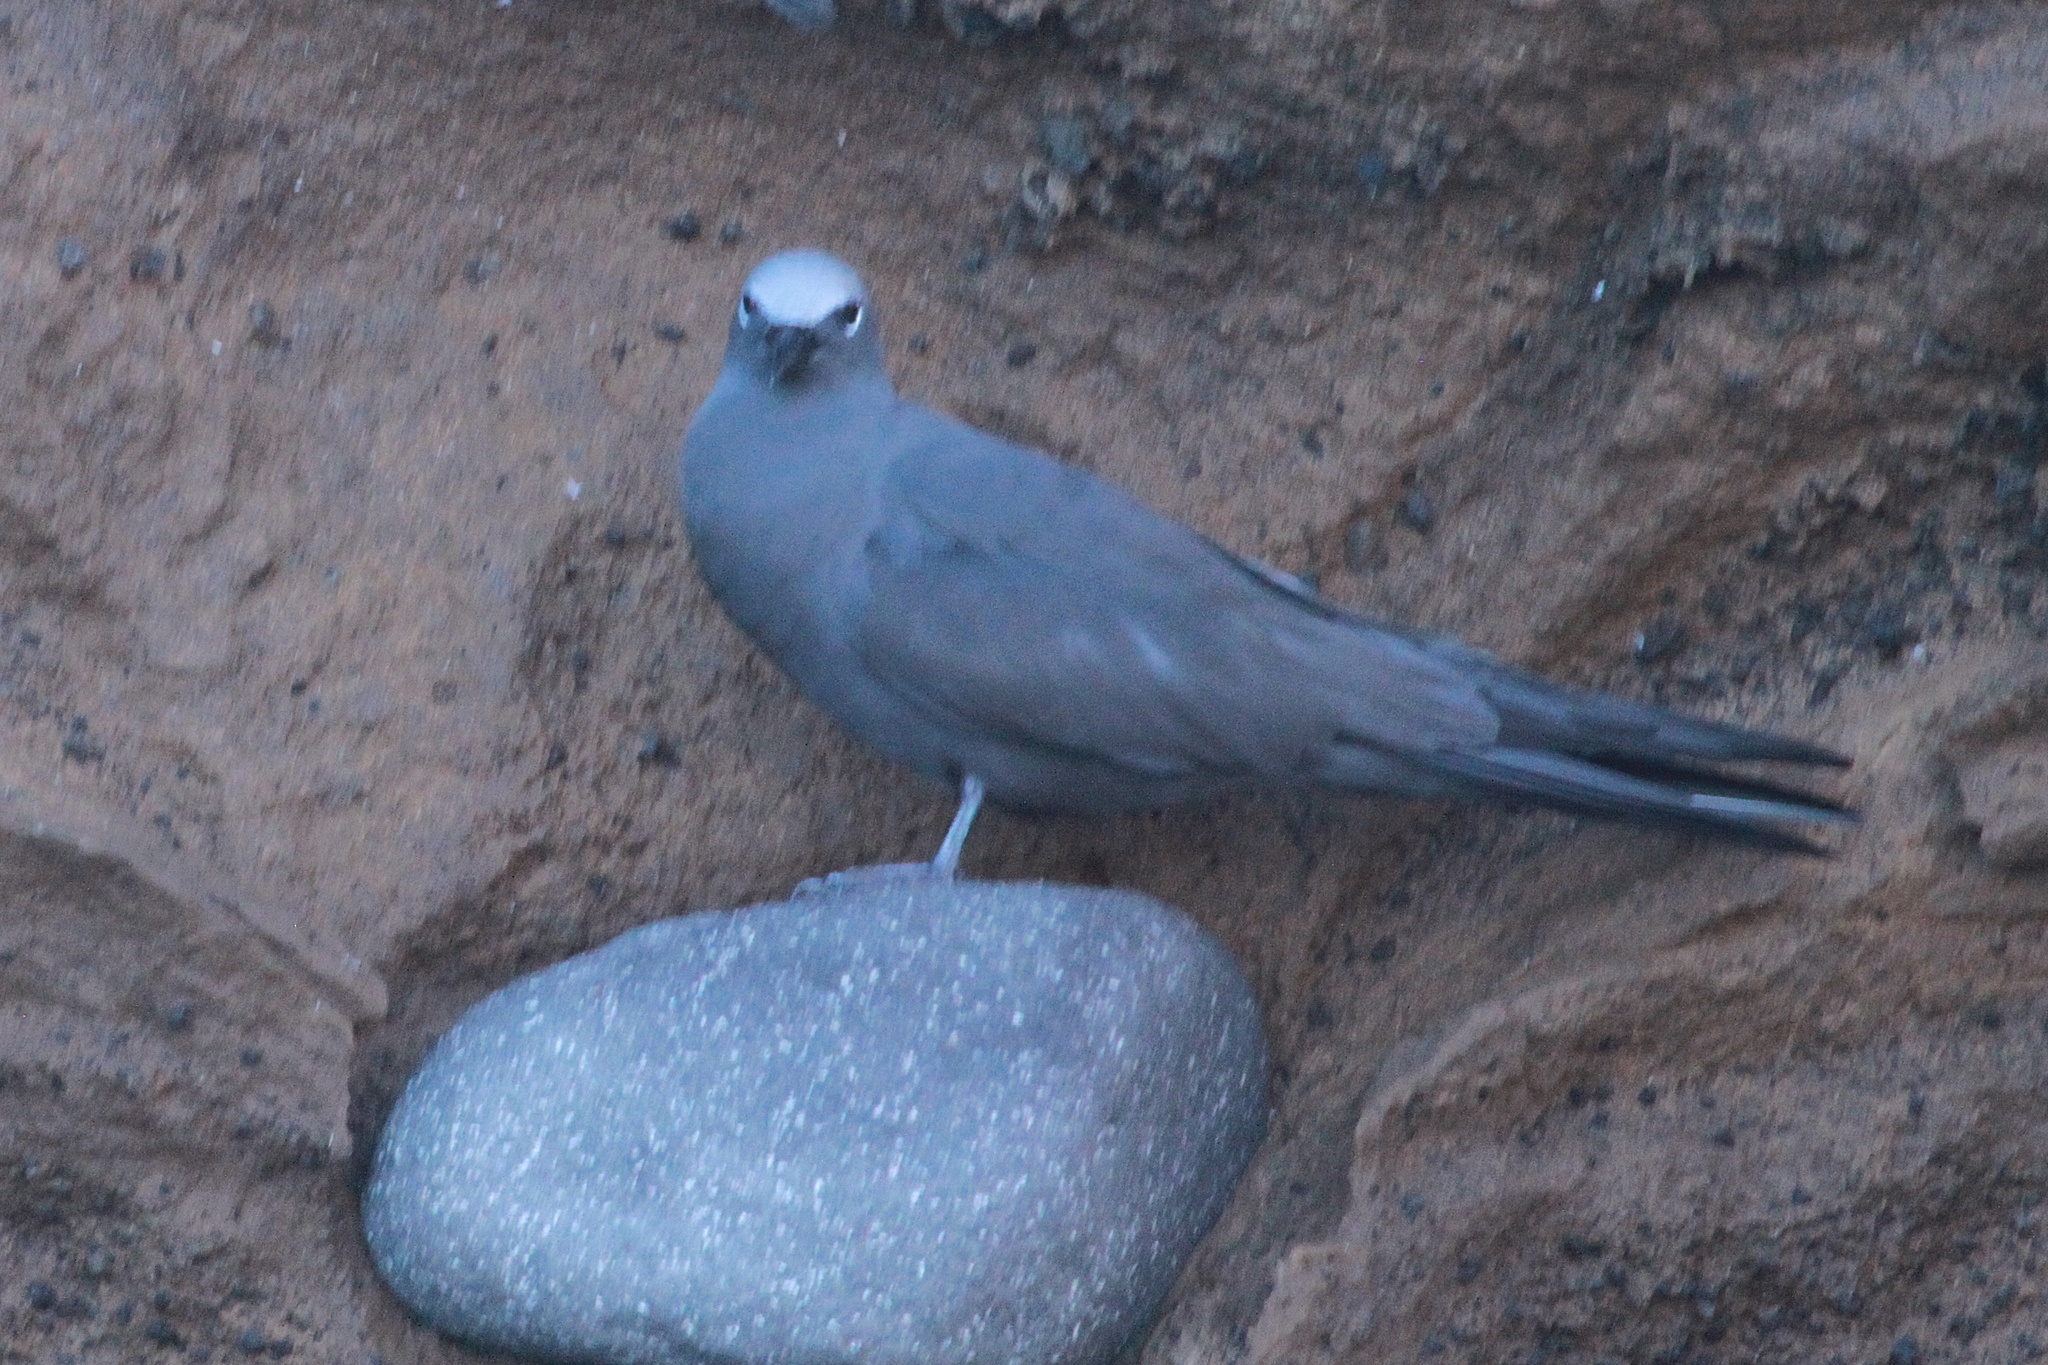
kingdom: Animalia
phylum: Chordata
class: Aves
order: Charadriiformes
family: Laridae
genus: Anous
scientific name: Anous stolidus
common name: Brown noddy
